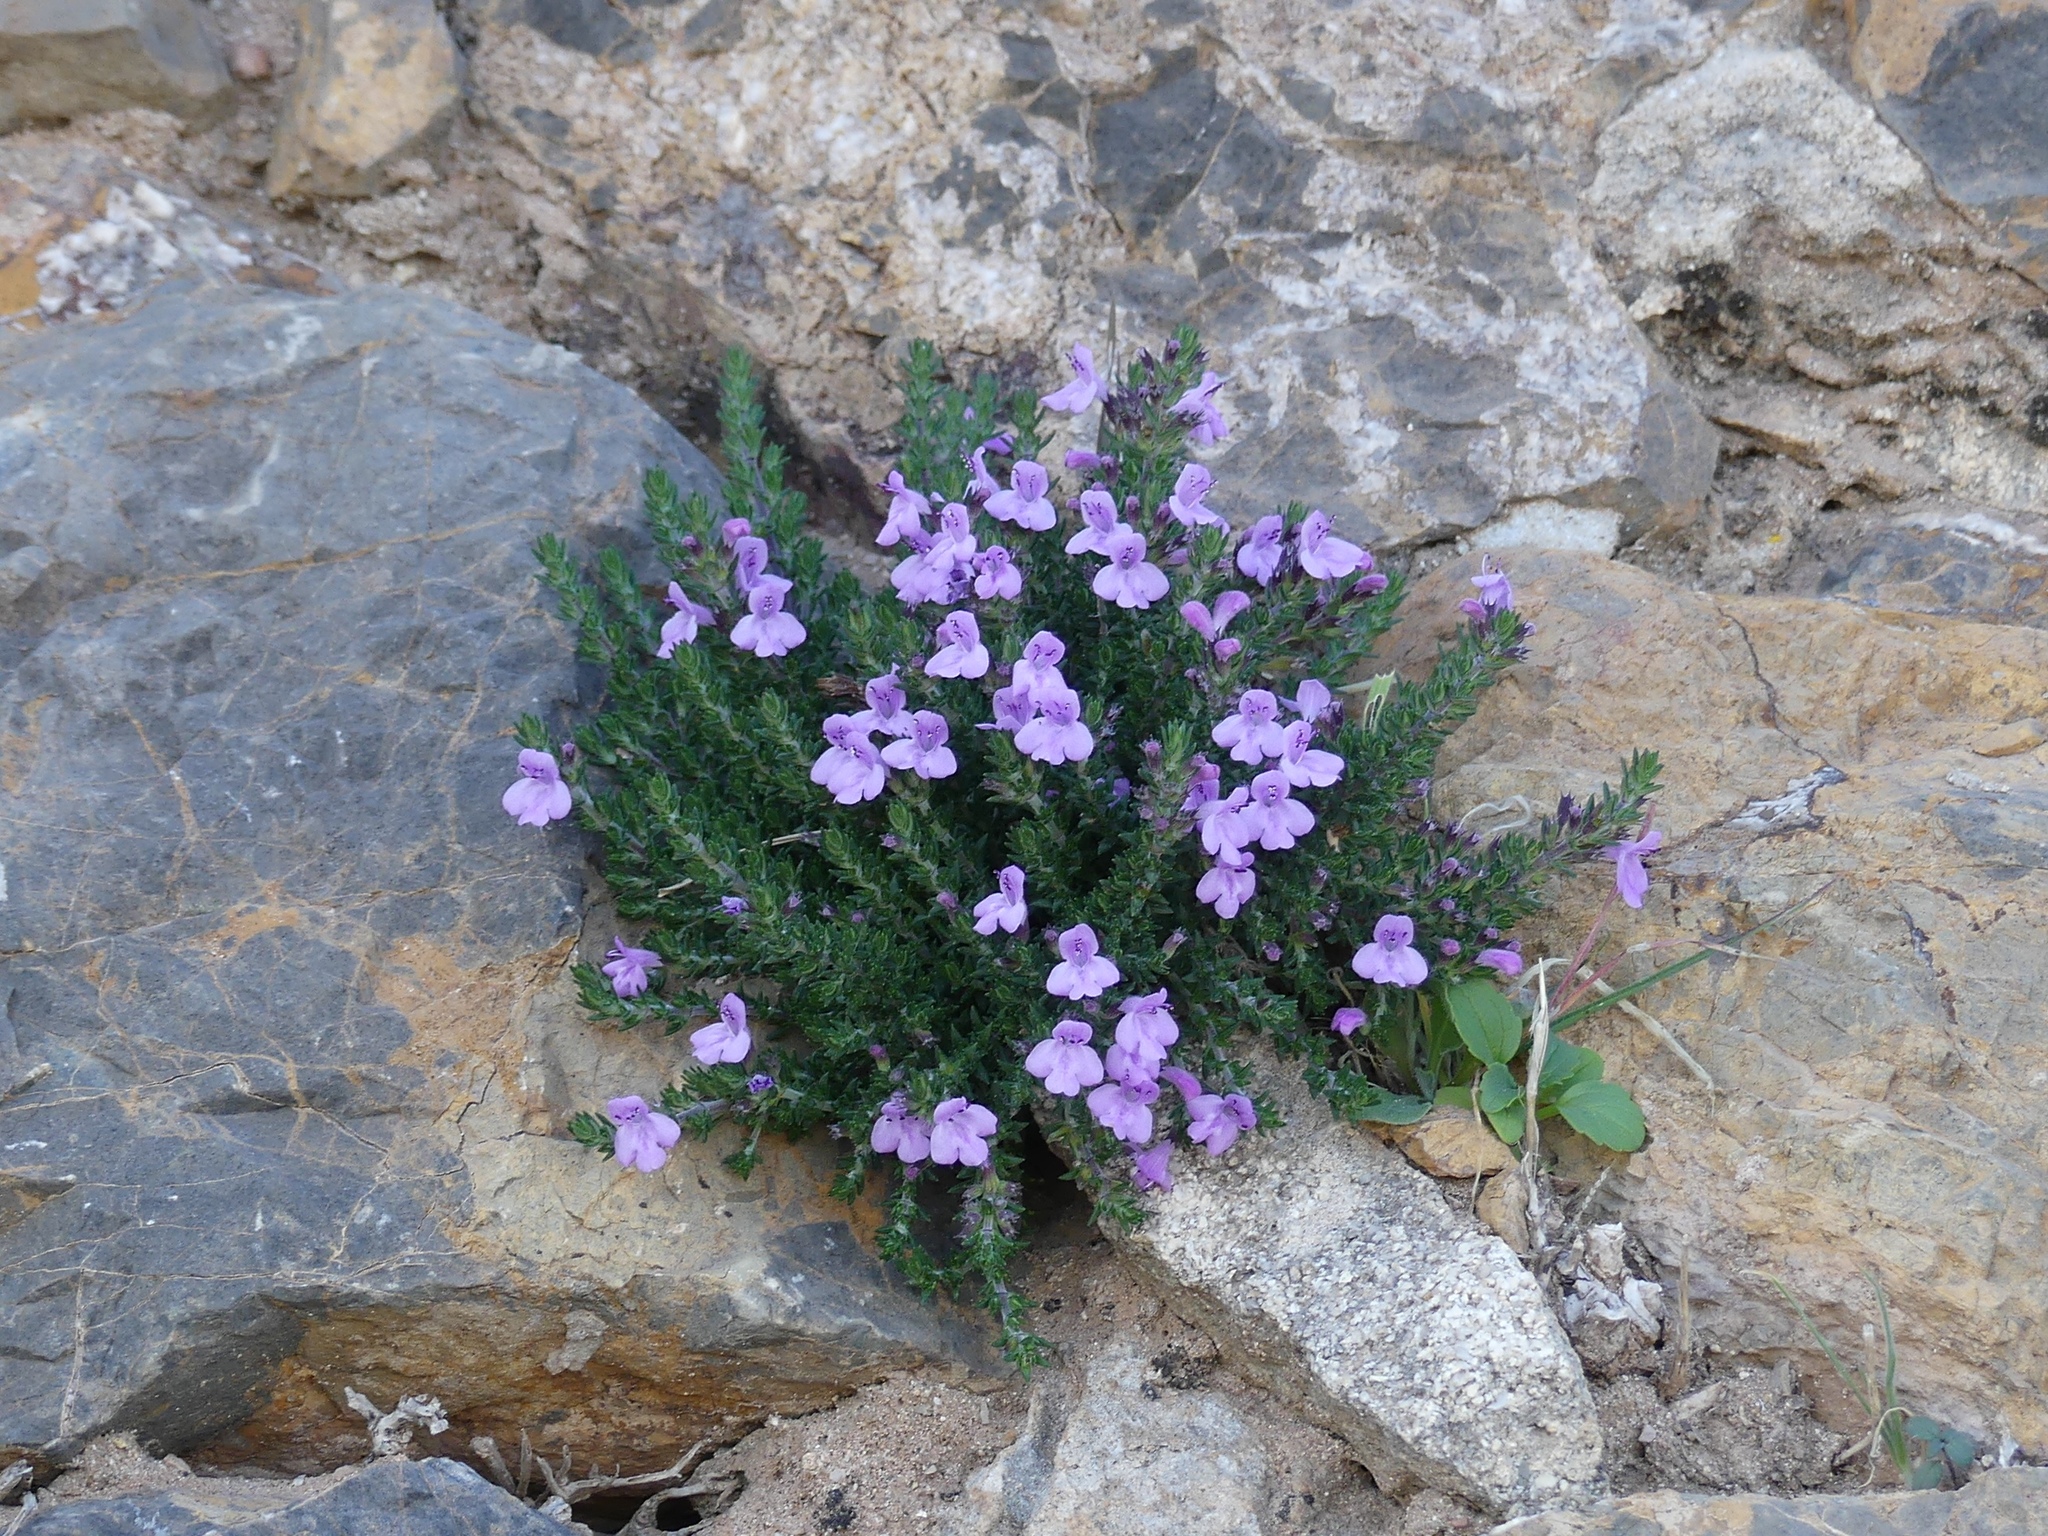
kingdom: Plantae
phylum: Tracheophyta
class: Magnoliopsida
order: Lamiales
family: Lamiaceae
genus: Micromeria
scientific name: Micromeria inodora
